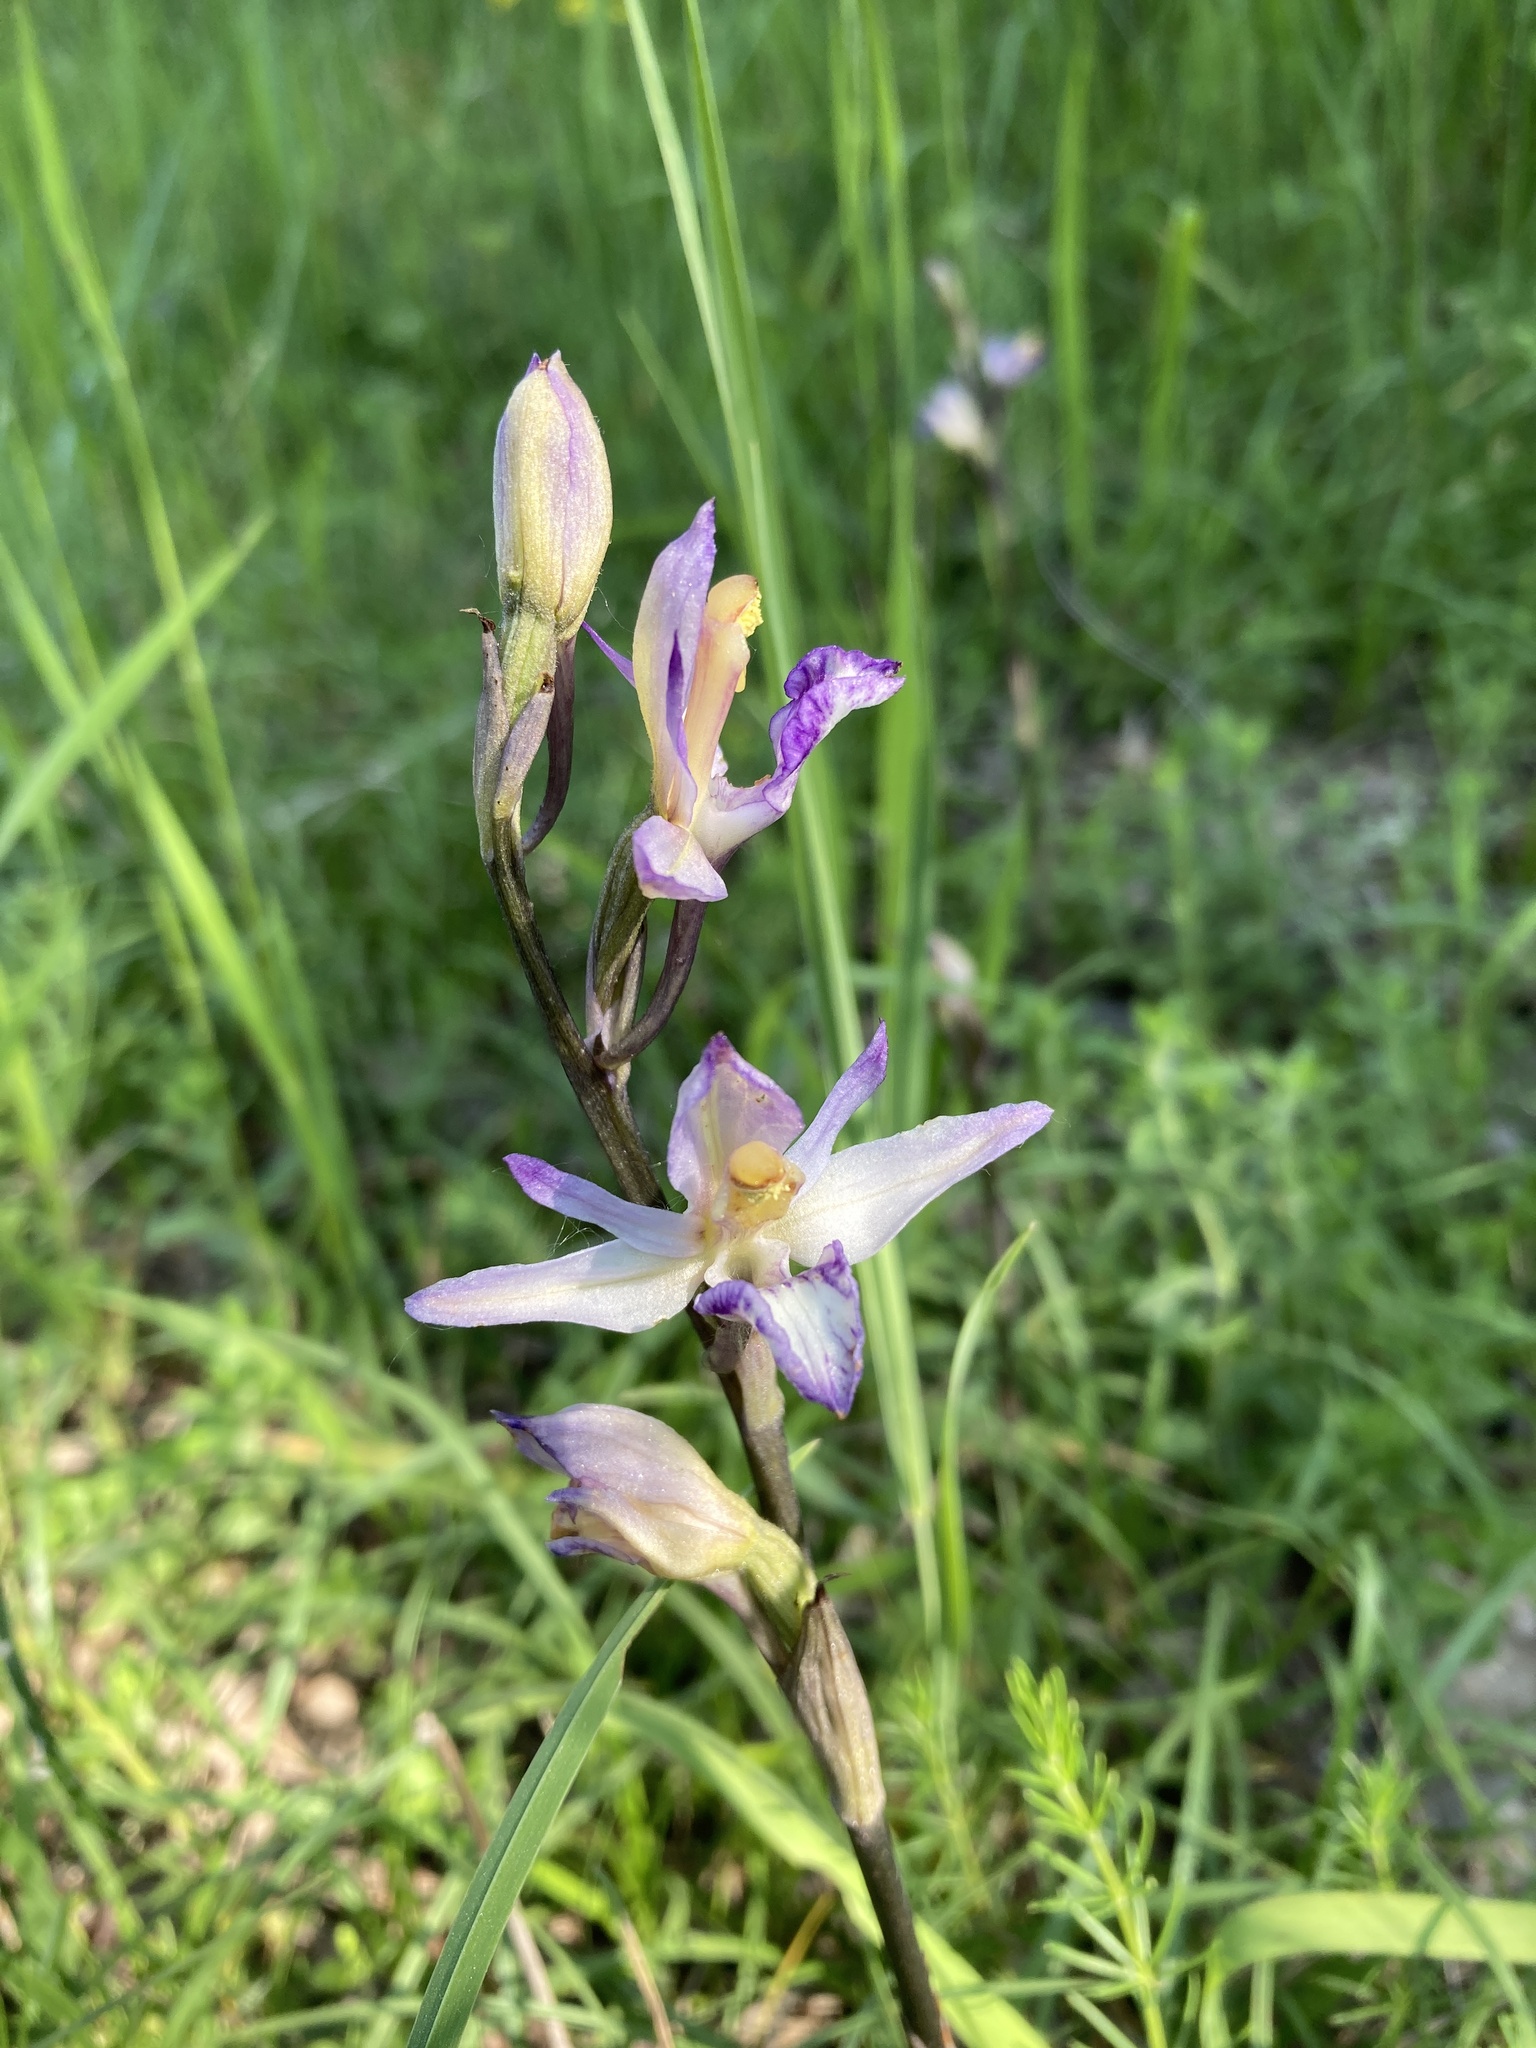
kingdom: Plantae
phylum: Tracheophyta
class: Liliopsida
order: Asparagales
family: Orchidaceae
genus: Limodorum
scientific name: Limodorum abortivum
